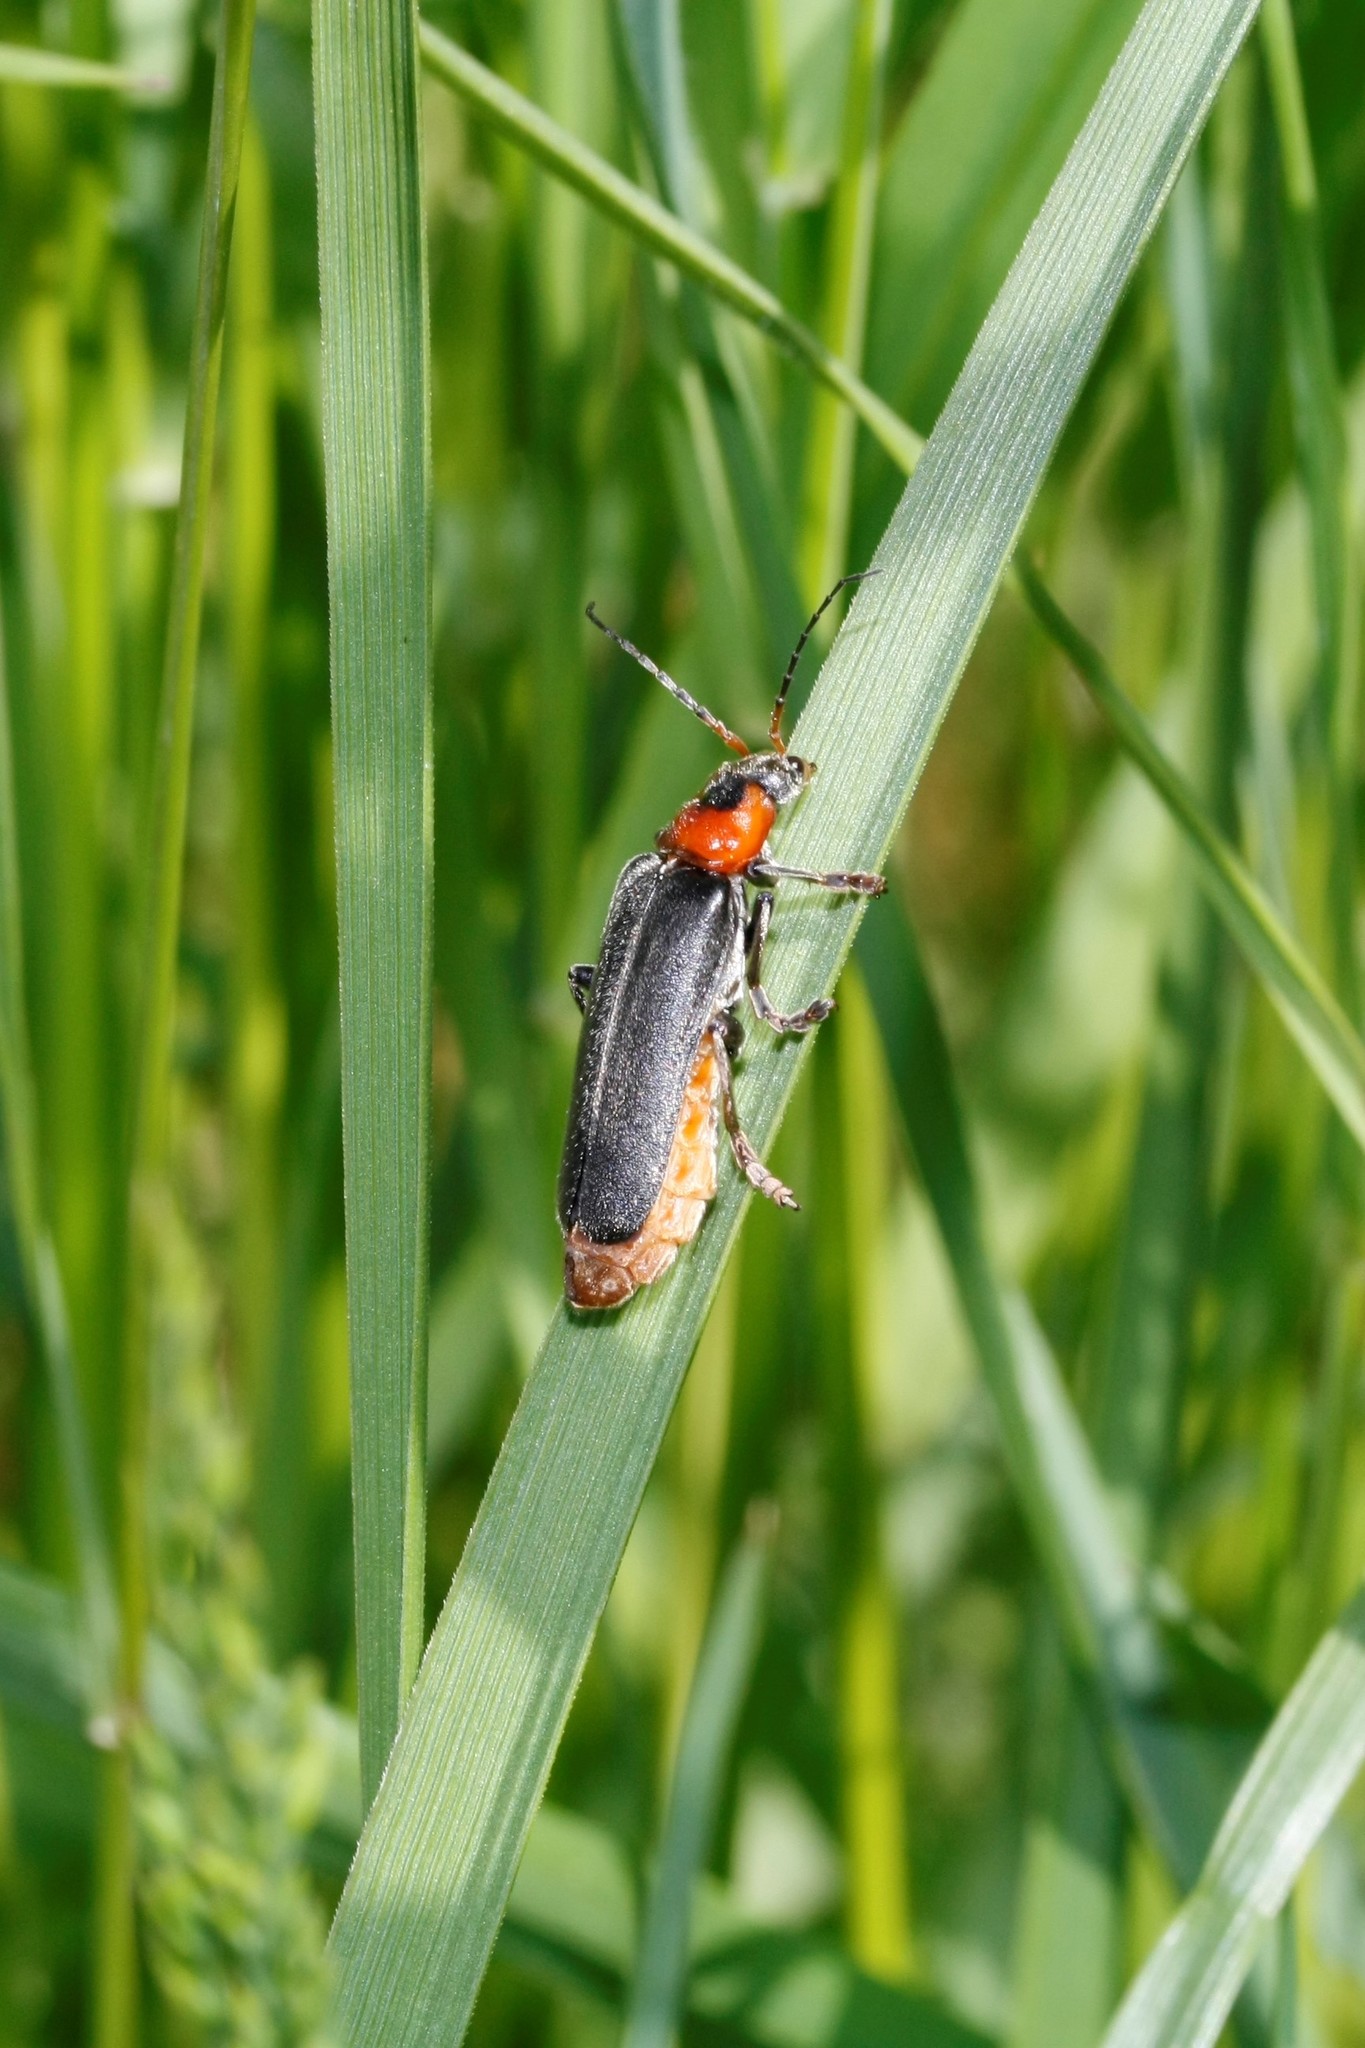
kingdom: Animalia
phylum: Arthropoda
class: Insecta
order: Coleoptera
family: Cantharidae
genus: Cantharis
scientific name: Cantharis fusca
